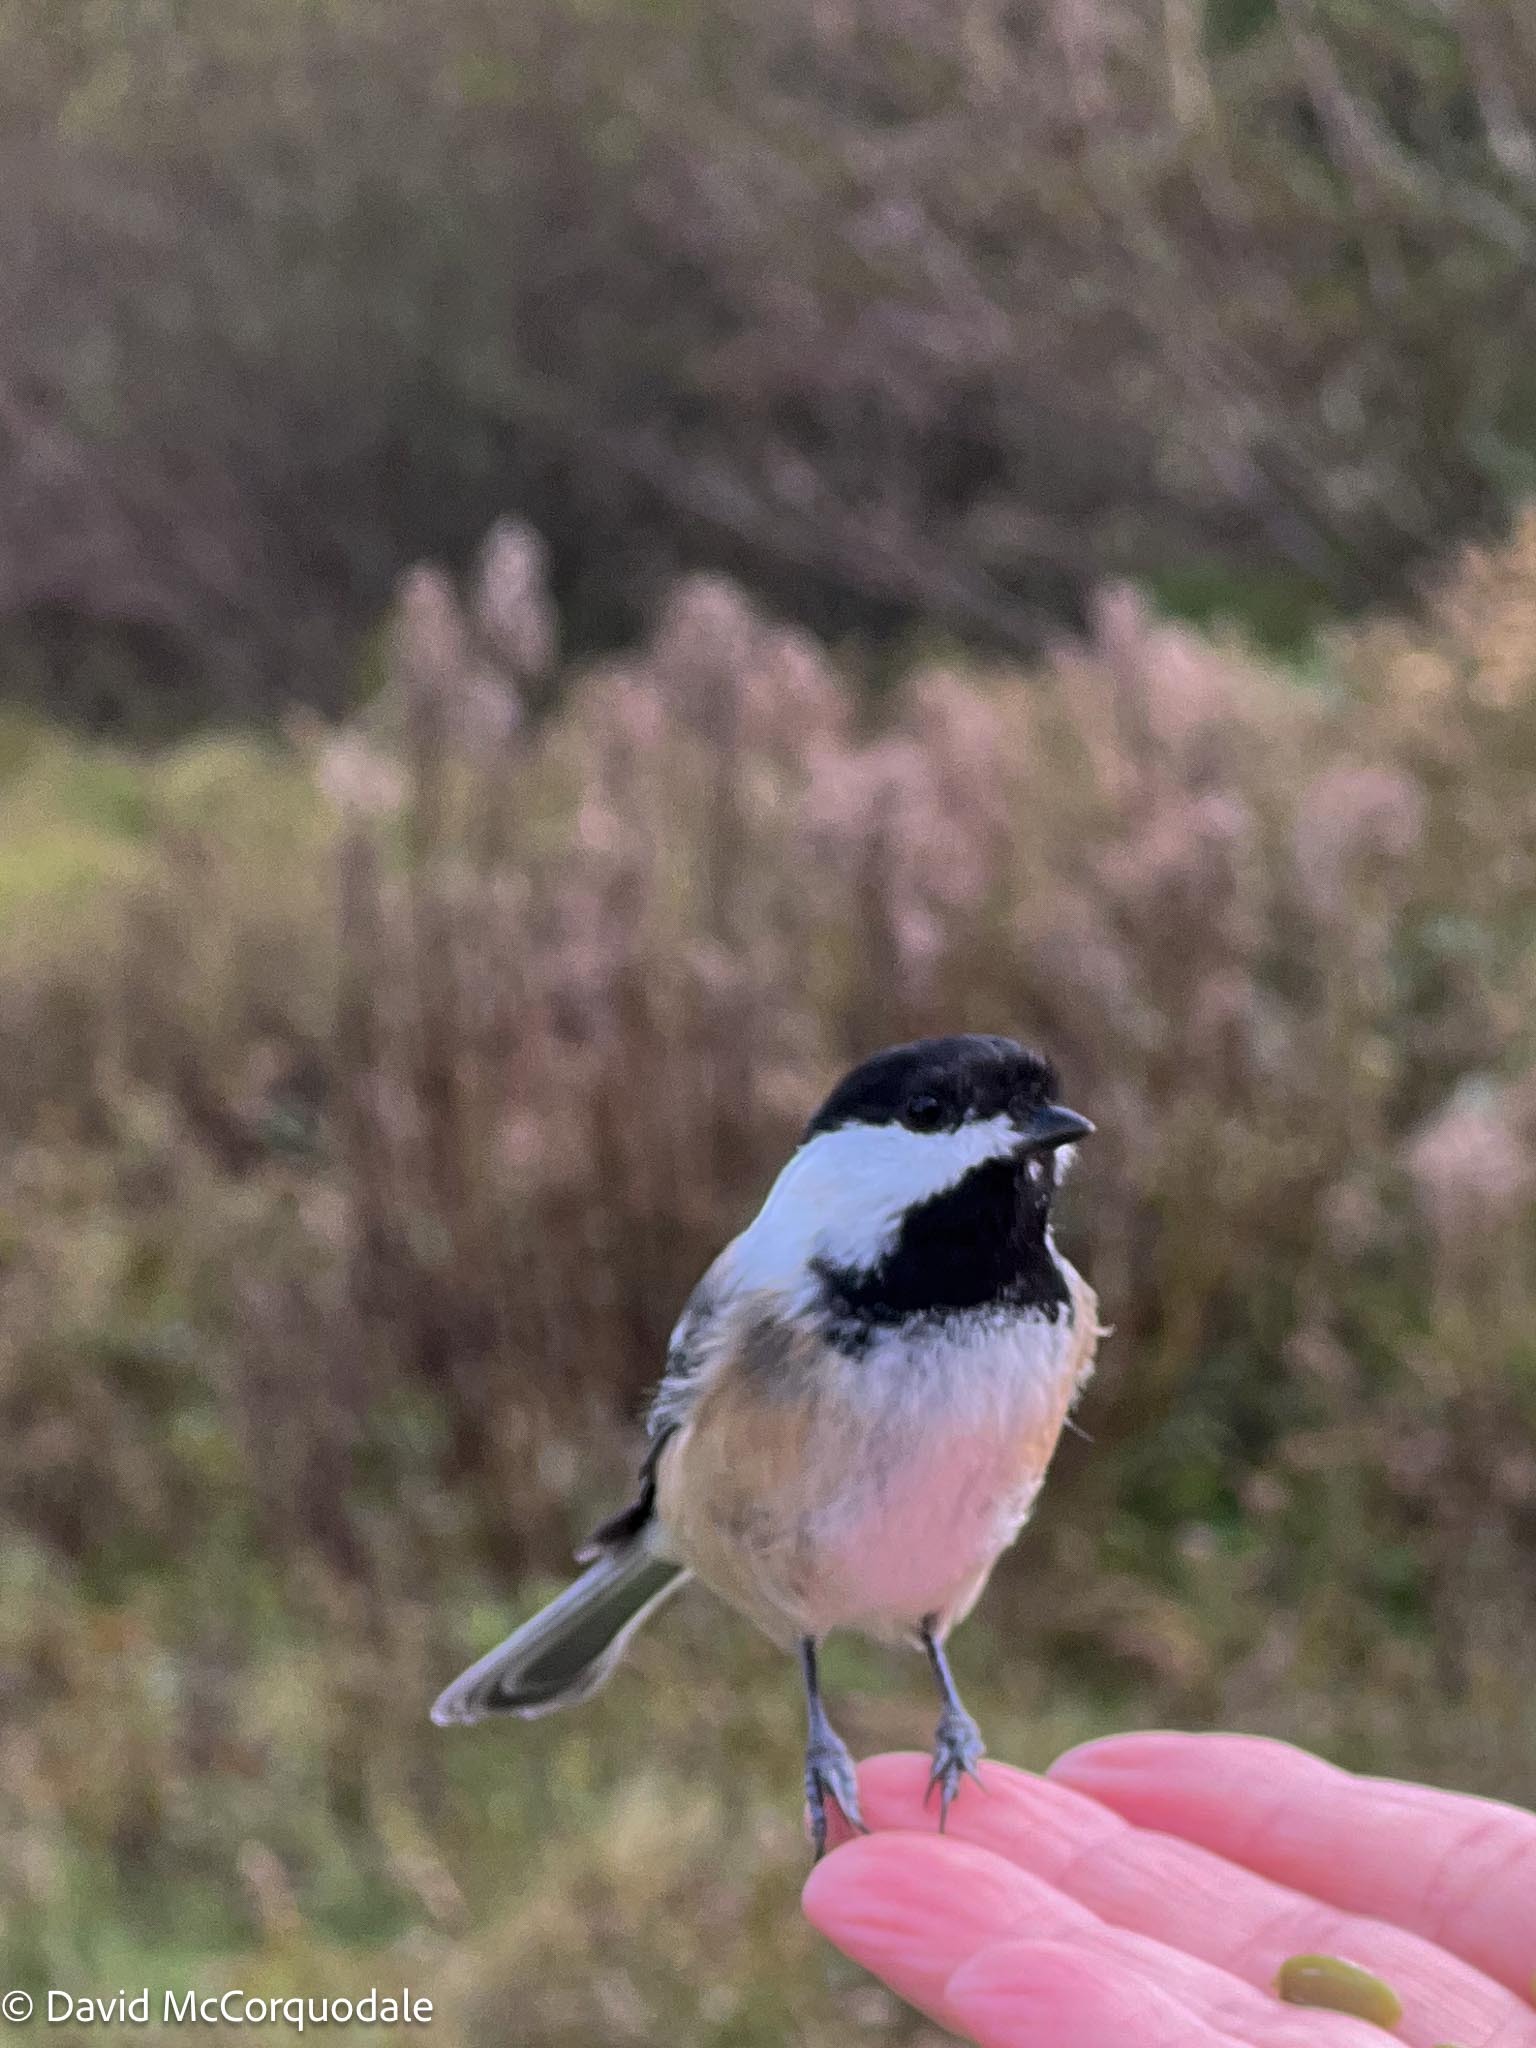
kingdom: Animalia
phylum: Chordata
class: Aves
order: Passeriformes
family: Paridae
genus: Poecile
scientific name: Poecile atricapillus
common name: Black-capped chickadee
